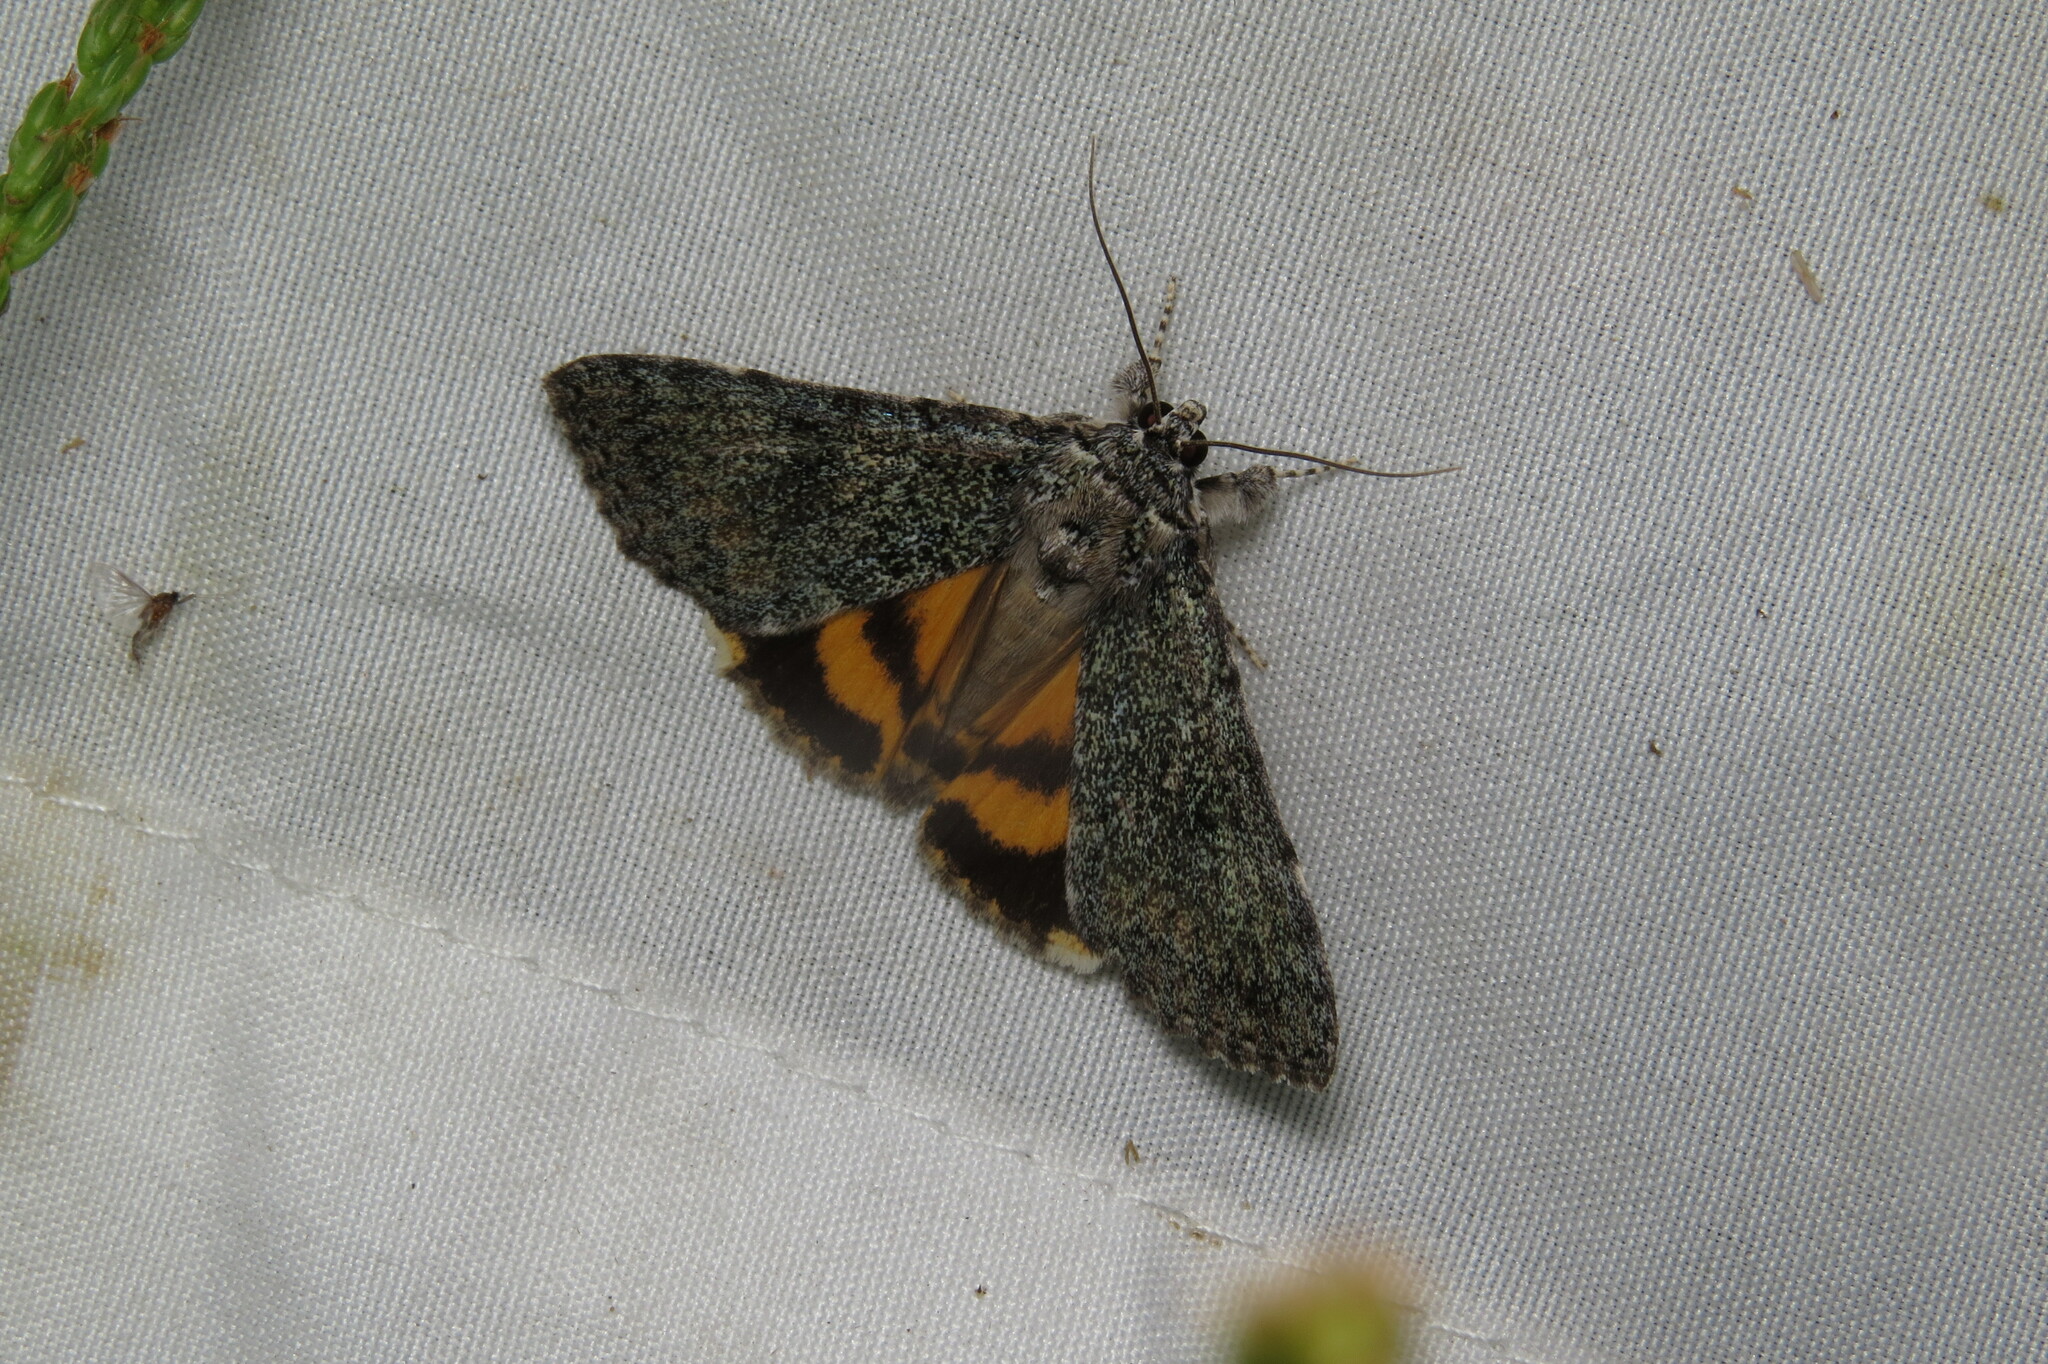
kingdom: Animalia
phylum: Arthropoda
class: Insecta
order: Lepidoptera
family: Erebidae
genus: Catocala
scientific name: Catocala connubialis
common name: Connubial underwing
